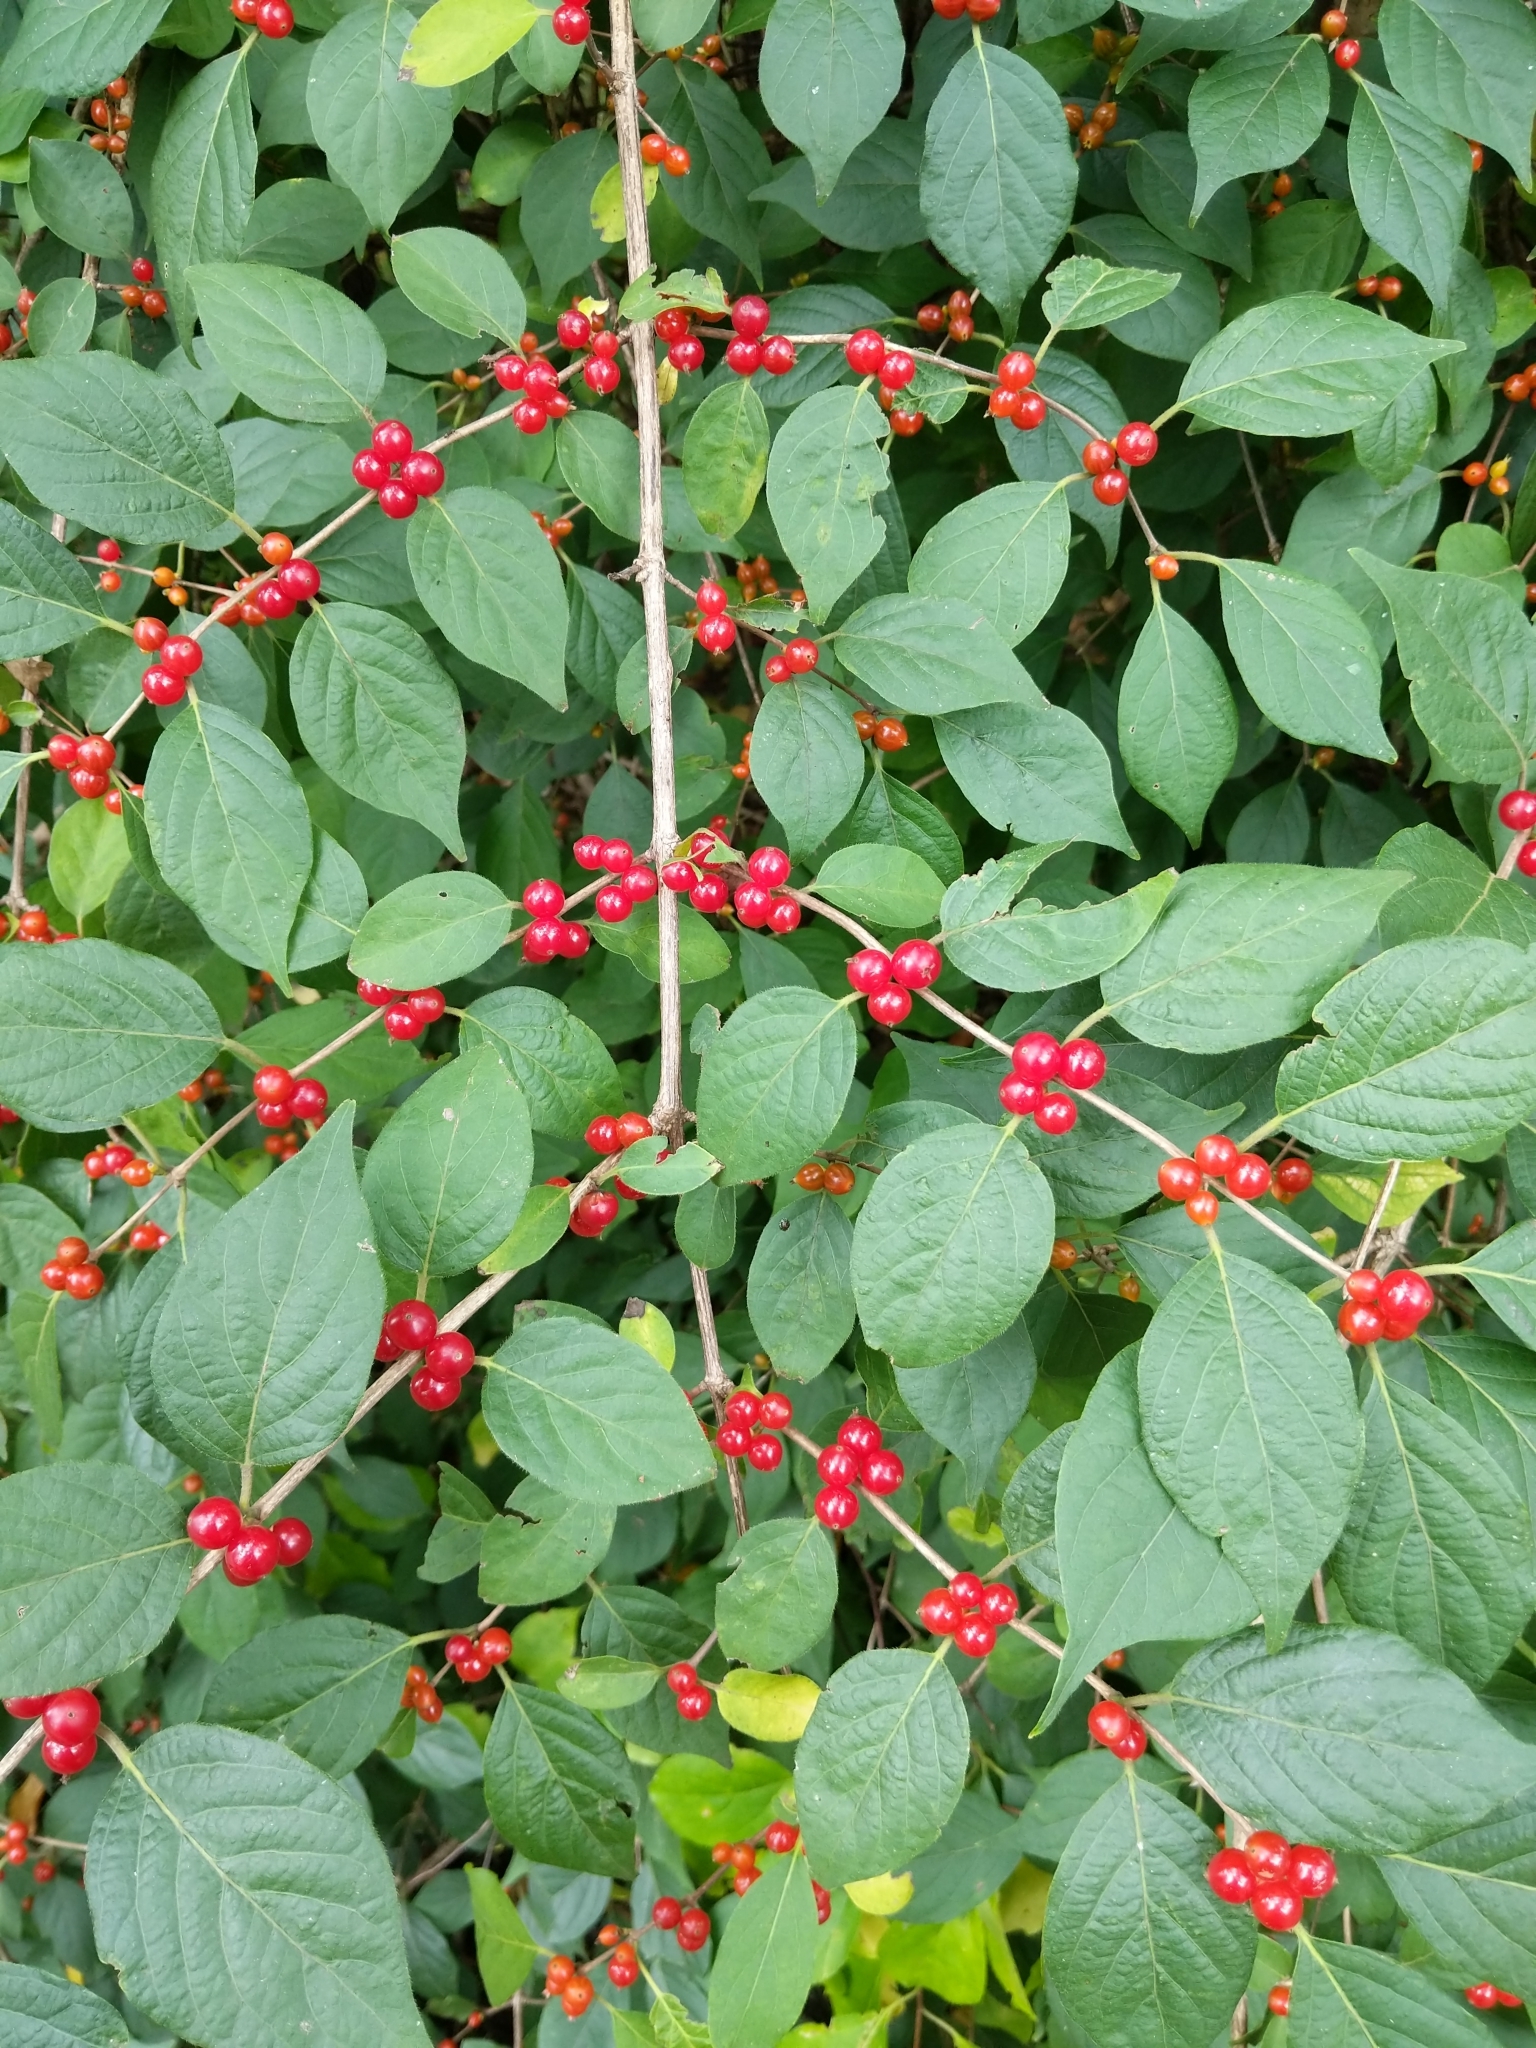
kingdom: Plantae
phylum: Tracheophyta
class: Magnoliopsida
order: Dipsacales
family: Caprifoliaceae
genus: Lonicera
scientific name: Lonicera maackii
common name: Amur honeysuckle
